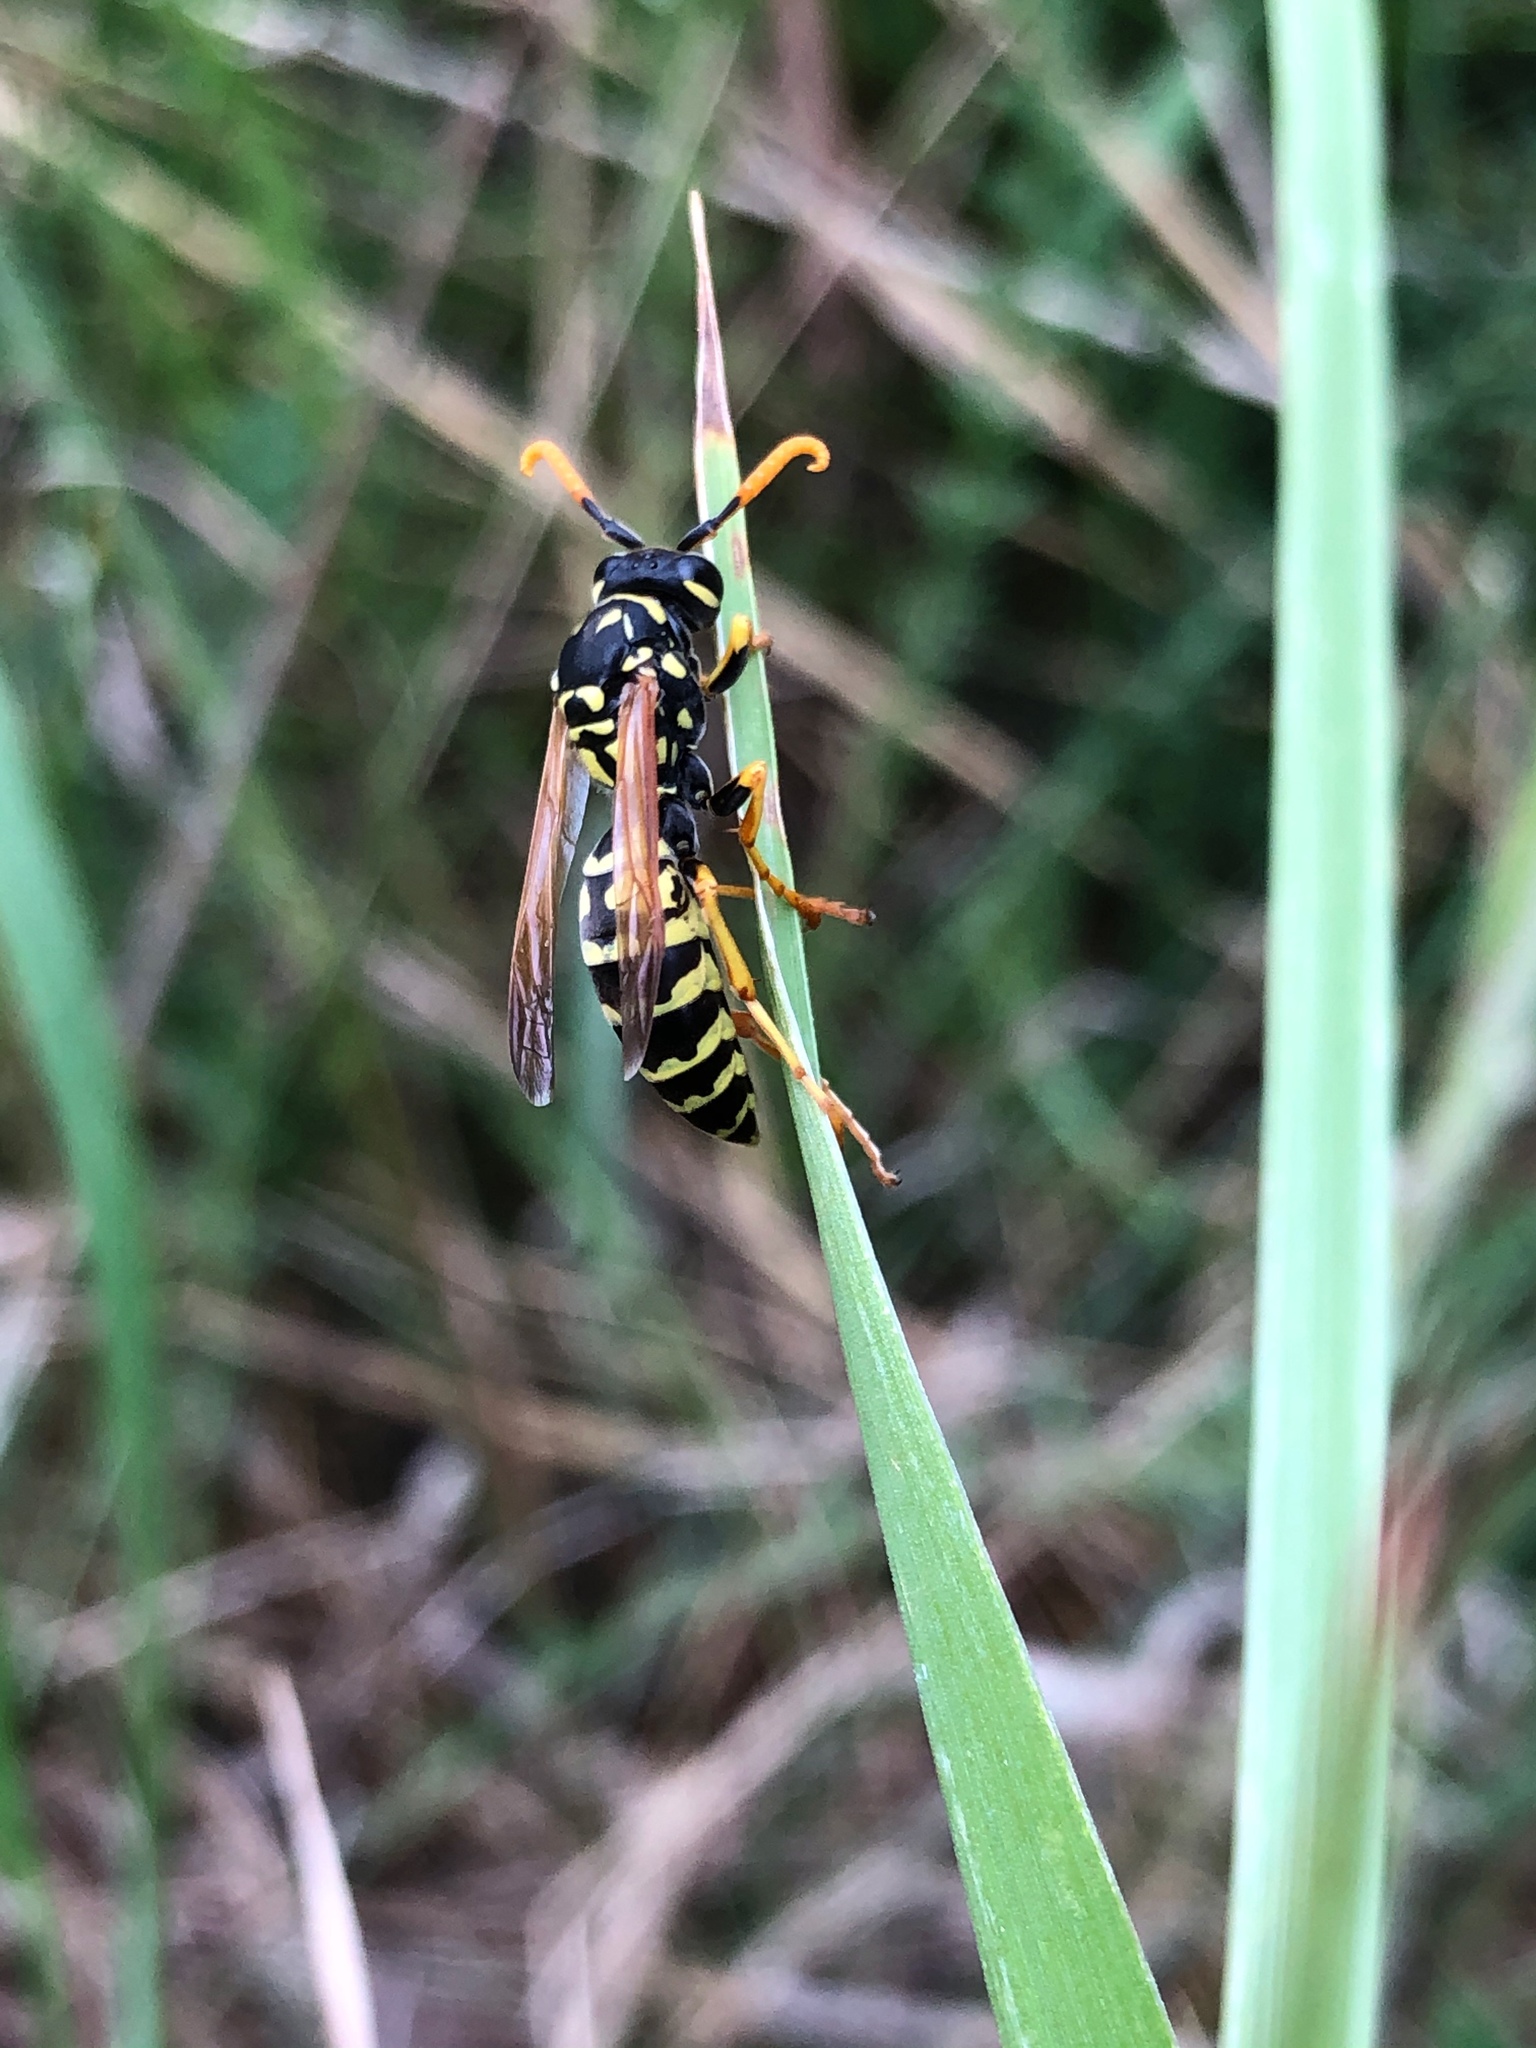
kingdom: Animalia
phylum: Arthropoda
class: Insecta
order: Hymenoptera
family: Eumenidae
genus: Polistes
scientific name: Polistes dominula
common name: Paper wasp
